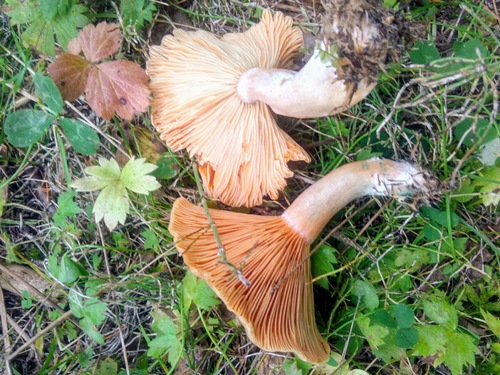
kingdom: Fungi
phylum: Basidiomycota
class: Agaricomycetes
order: Russulales
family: Russulaceae
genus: Lactarius
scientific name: Lactarius deterrimus
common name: False saffron milkcap
